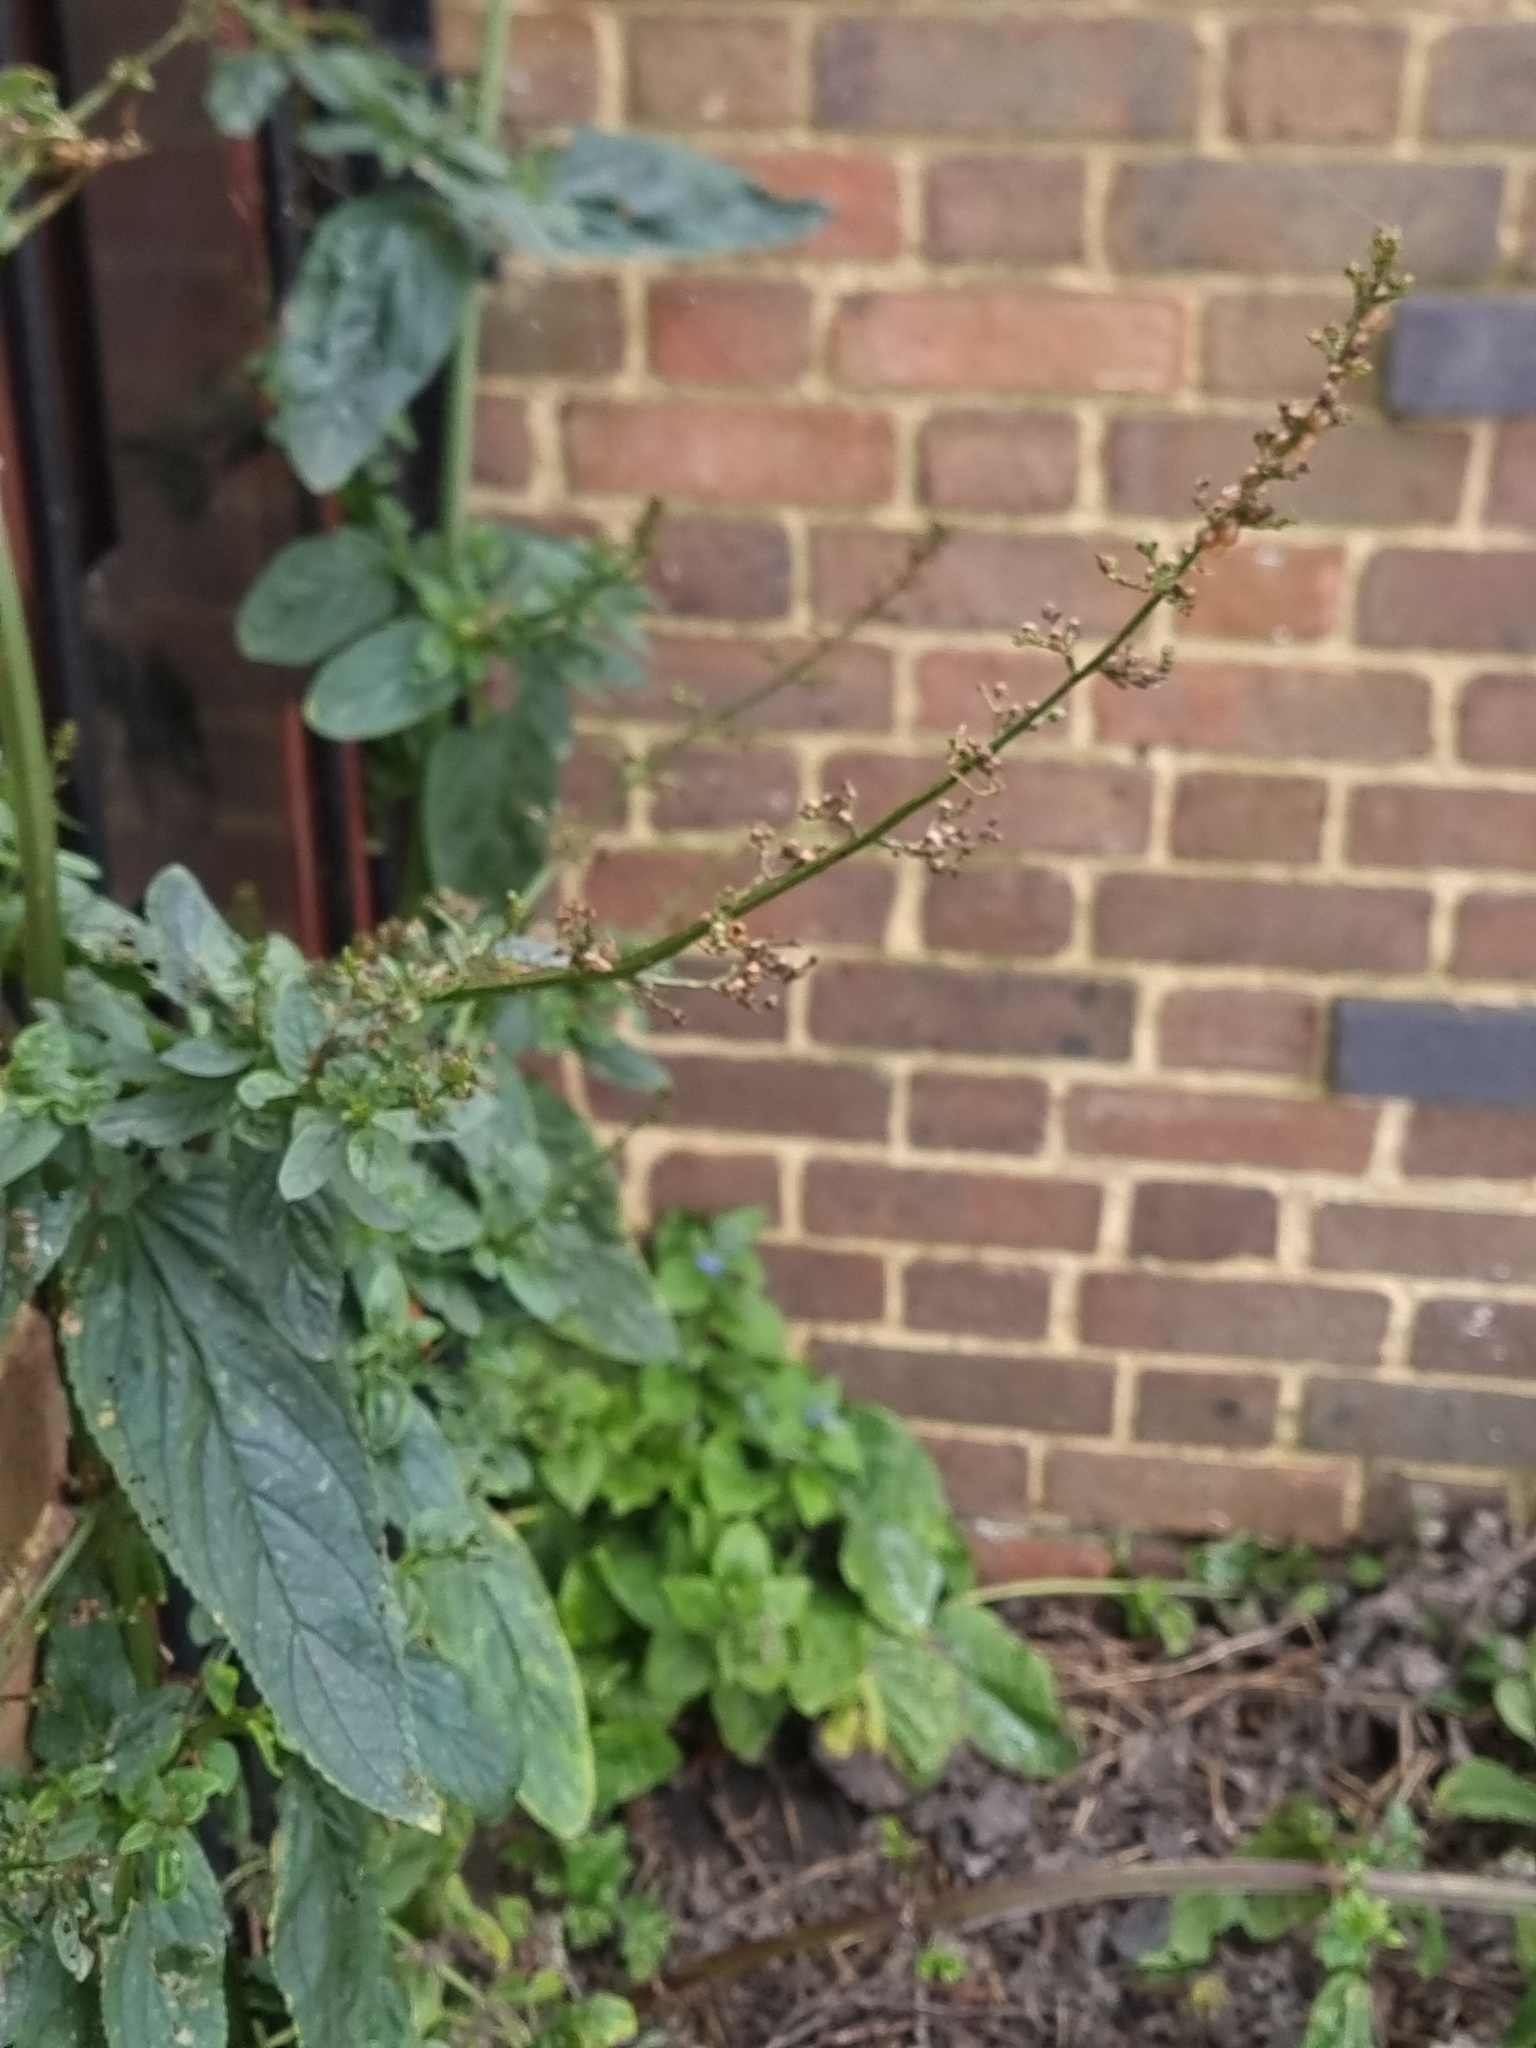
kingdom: Plantae
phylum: Tracheophyta
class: Magnoliopsida
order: Lamiales
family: Scrophulariaceae
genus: Scrophularia
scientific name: Scrophularia auriculata
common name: Water betony
